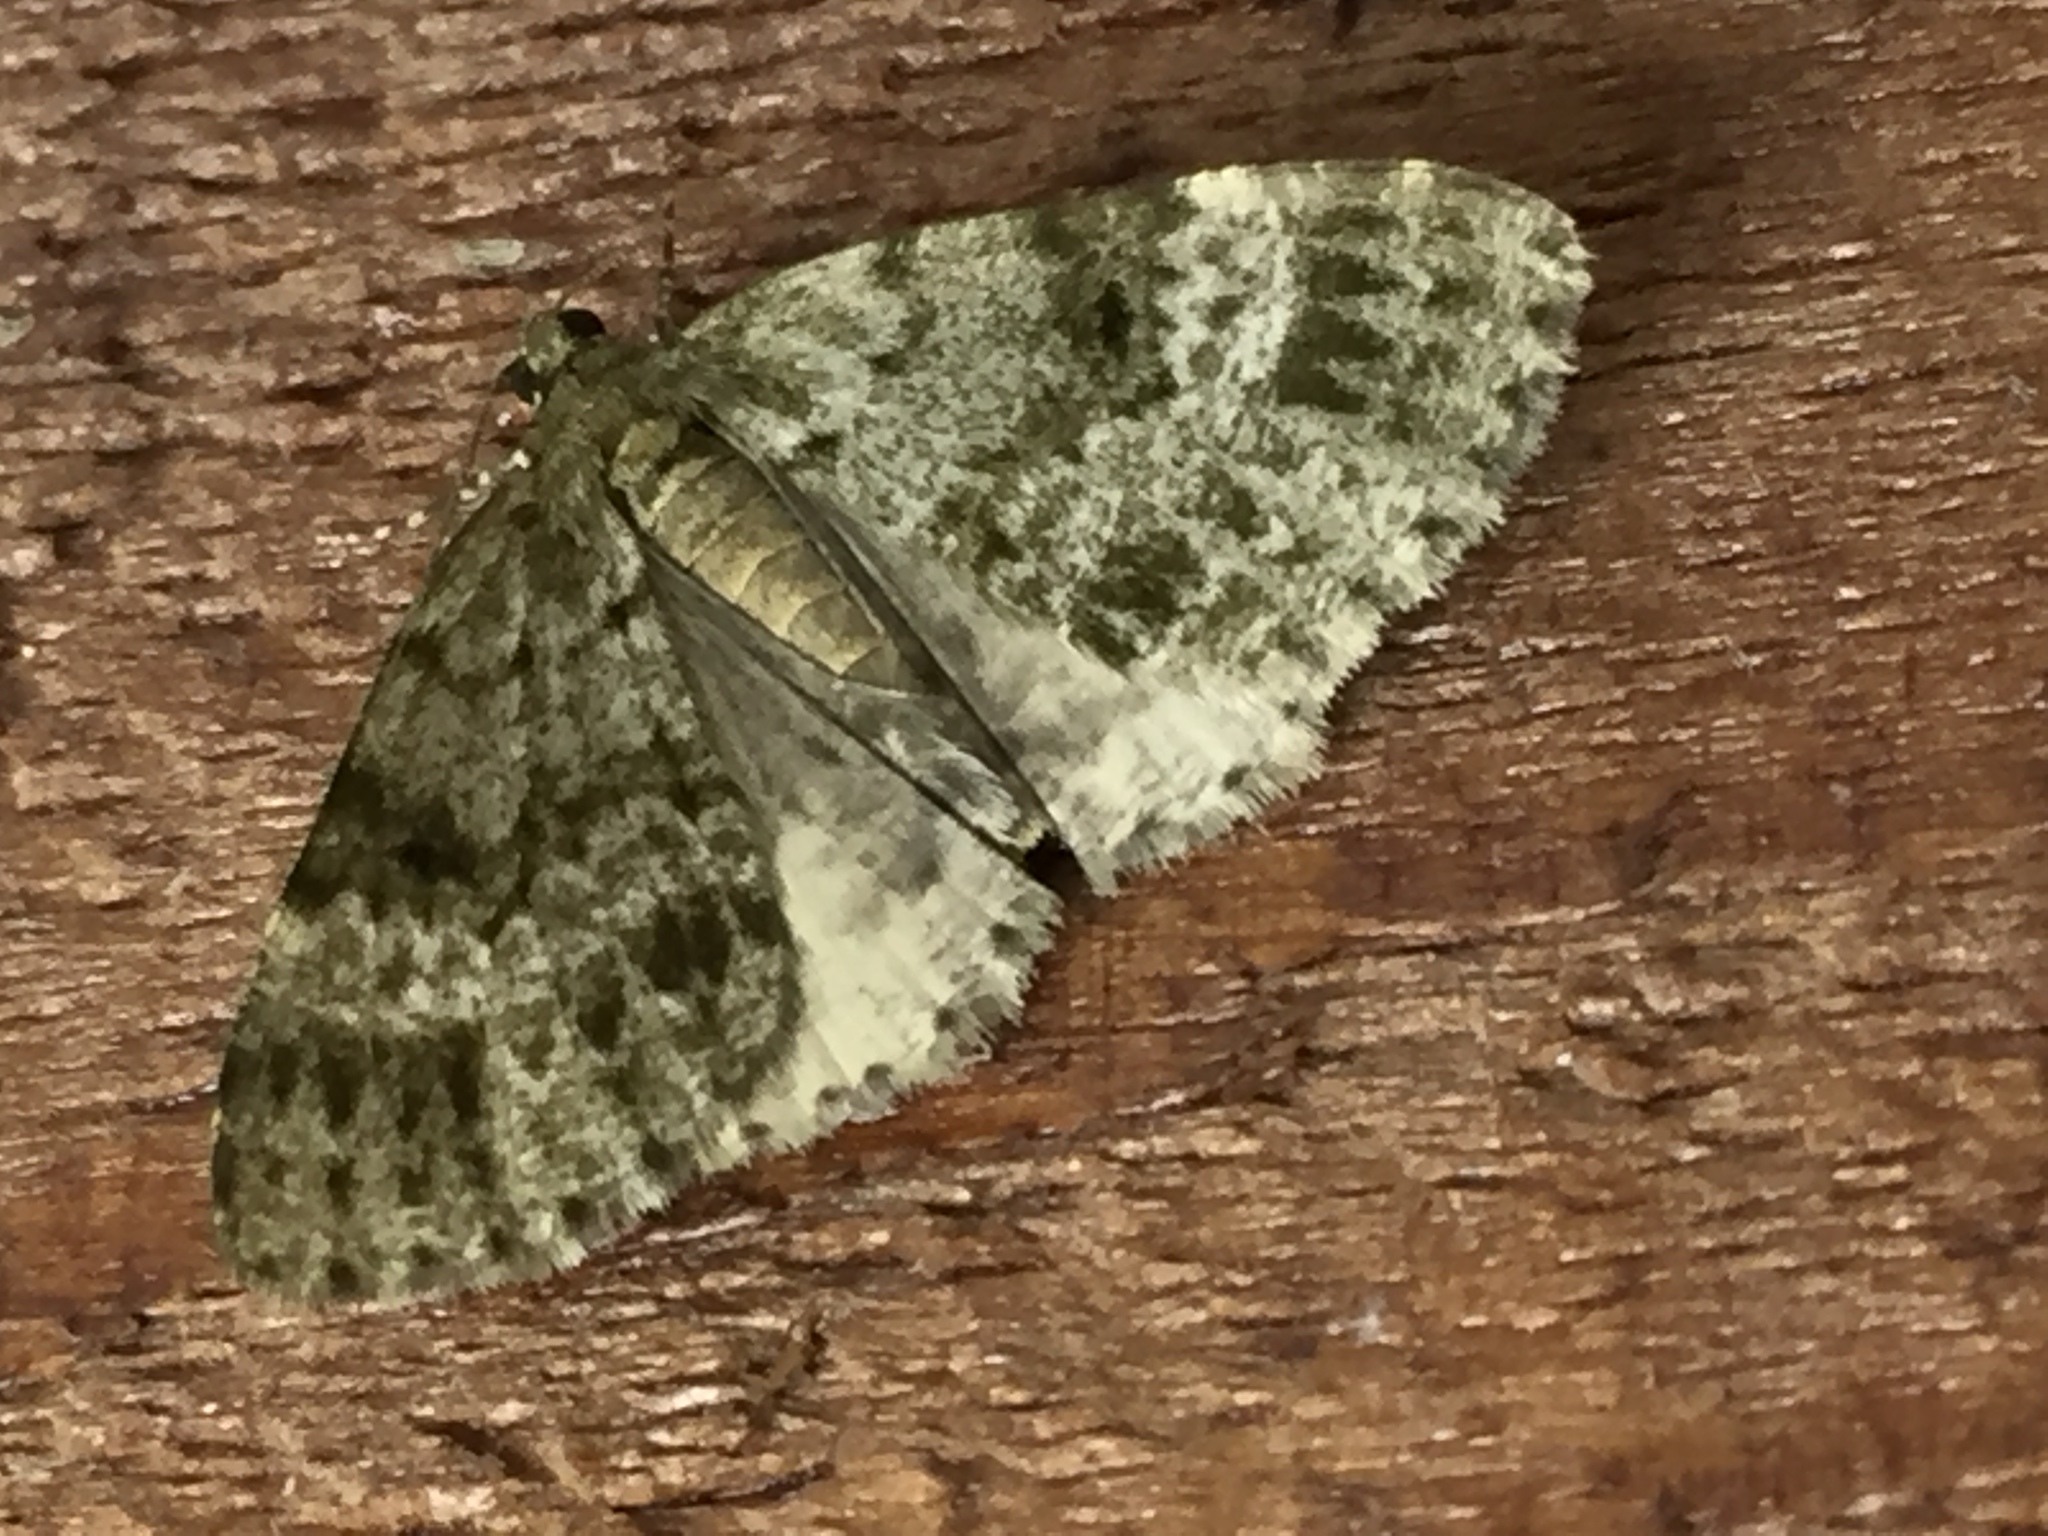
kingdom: Animalia
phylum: Arthropoda
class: Insecta
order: Lepidoptera
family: Geometridae
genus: Pseudocoremia
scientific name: Pseudocoremia indistincta
